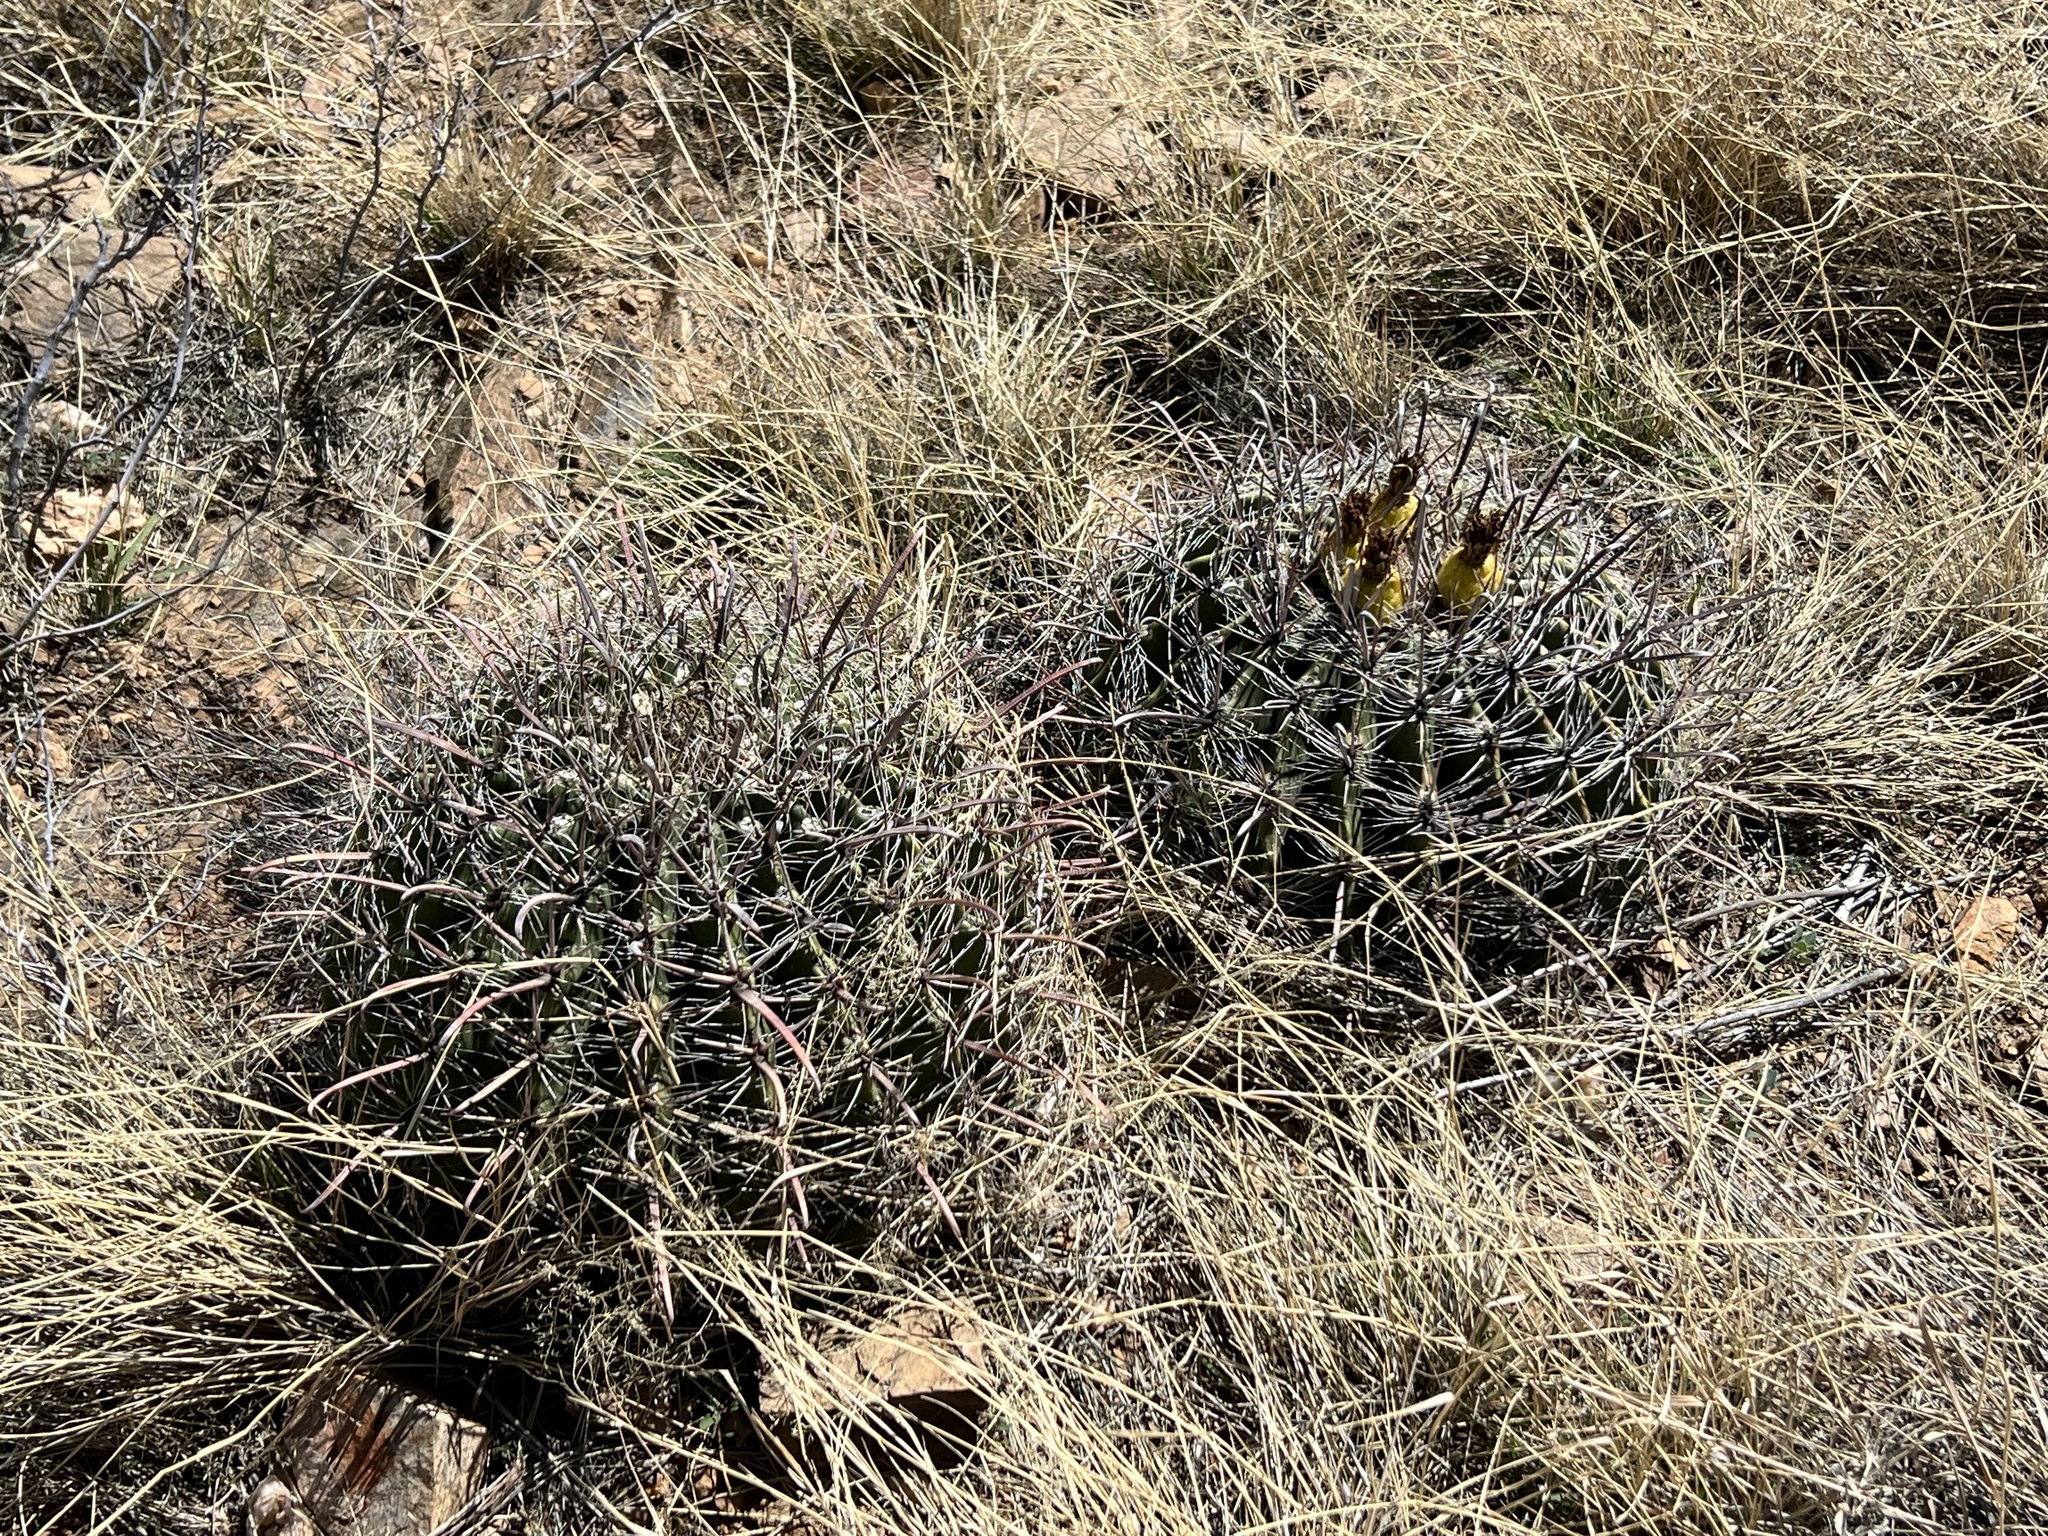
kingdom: Plantae
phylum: Tracheophyta
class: Magnoliopsida
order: Caryophyllales
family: Cactaceae
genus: Ferocactus
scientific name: Ferocactus wislizeni
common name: Candy barrel cactus
